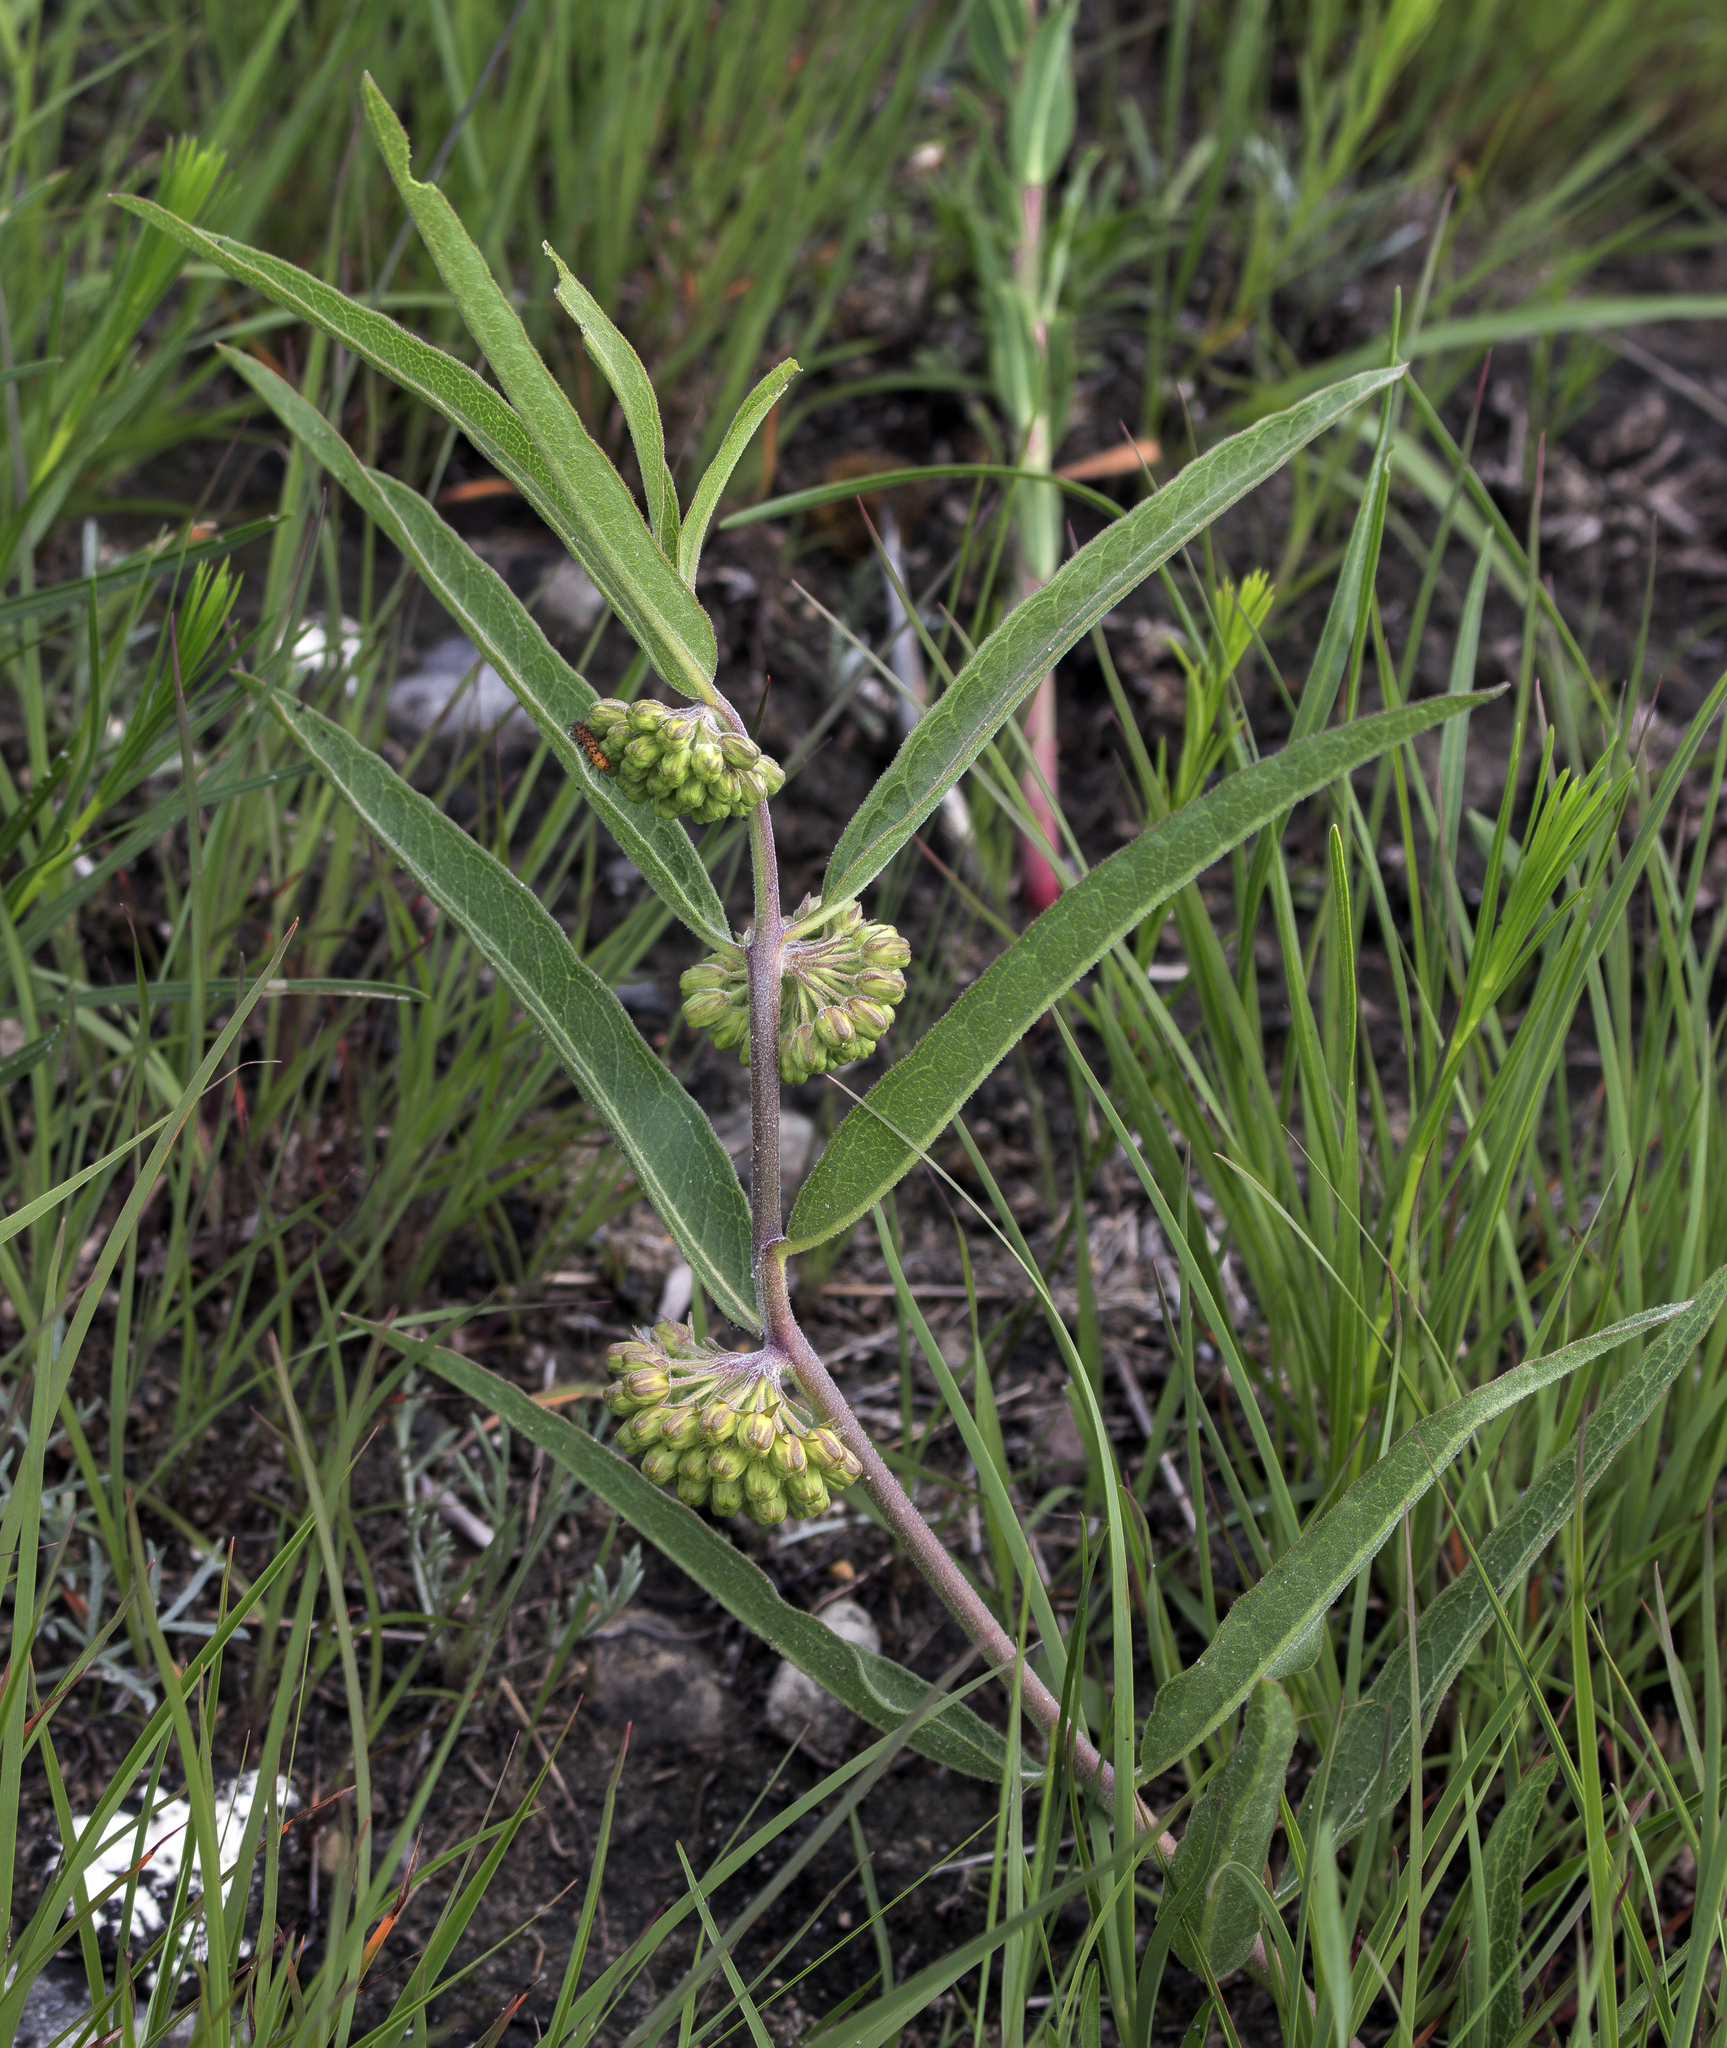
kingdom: Plantae
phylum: Tracheophyta
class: Magnoliopsida
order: Gentianales
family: Apocynaceae
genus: Asclepias
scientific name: Asclepias viridiflora
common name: Green comet milkweed
